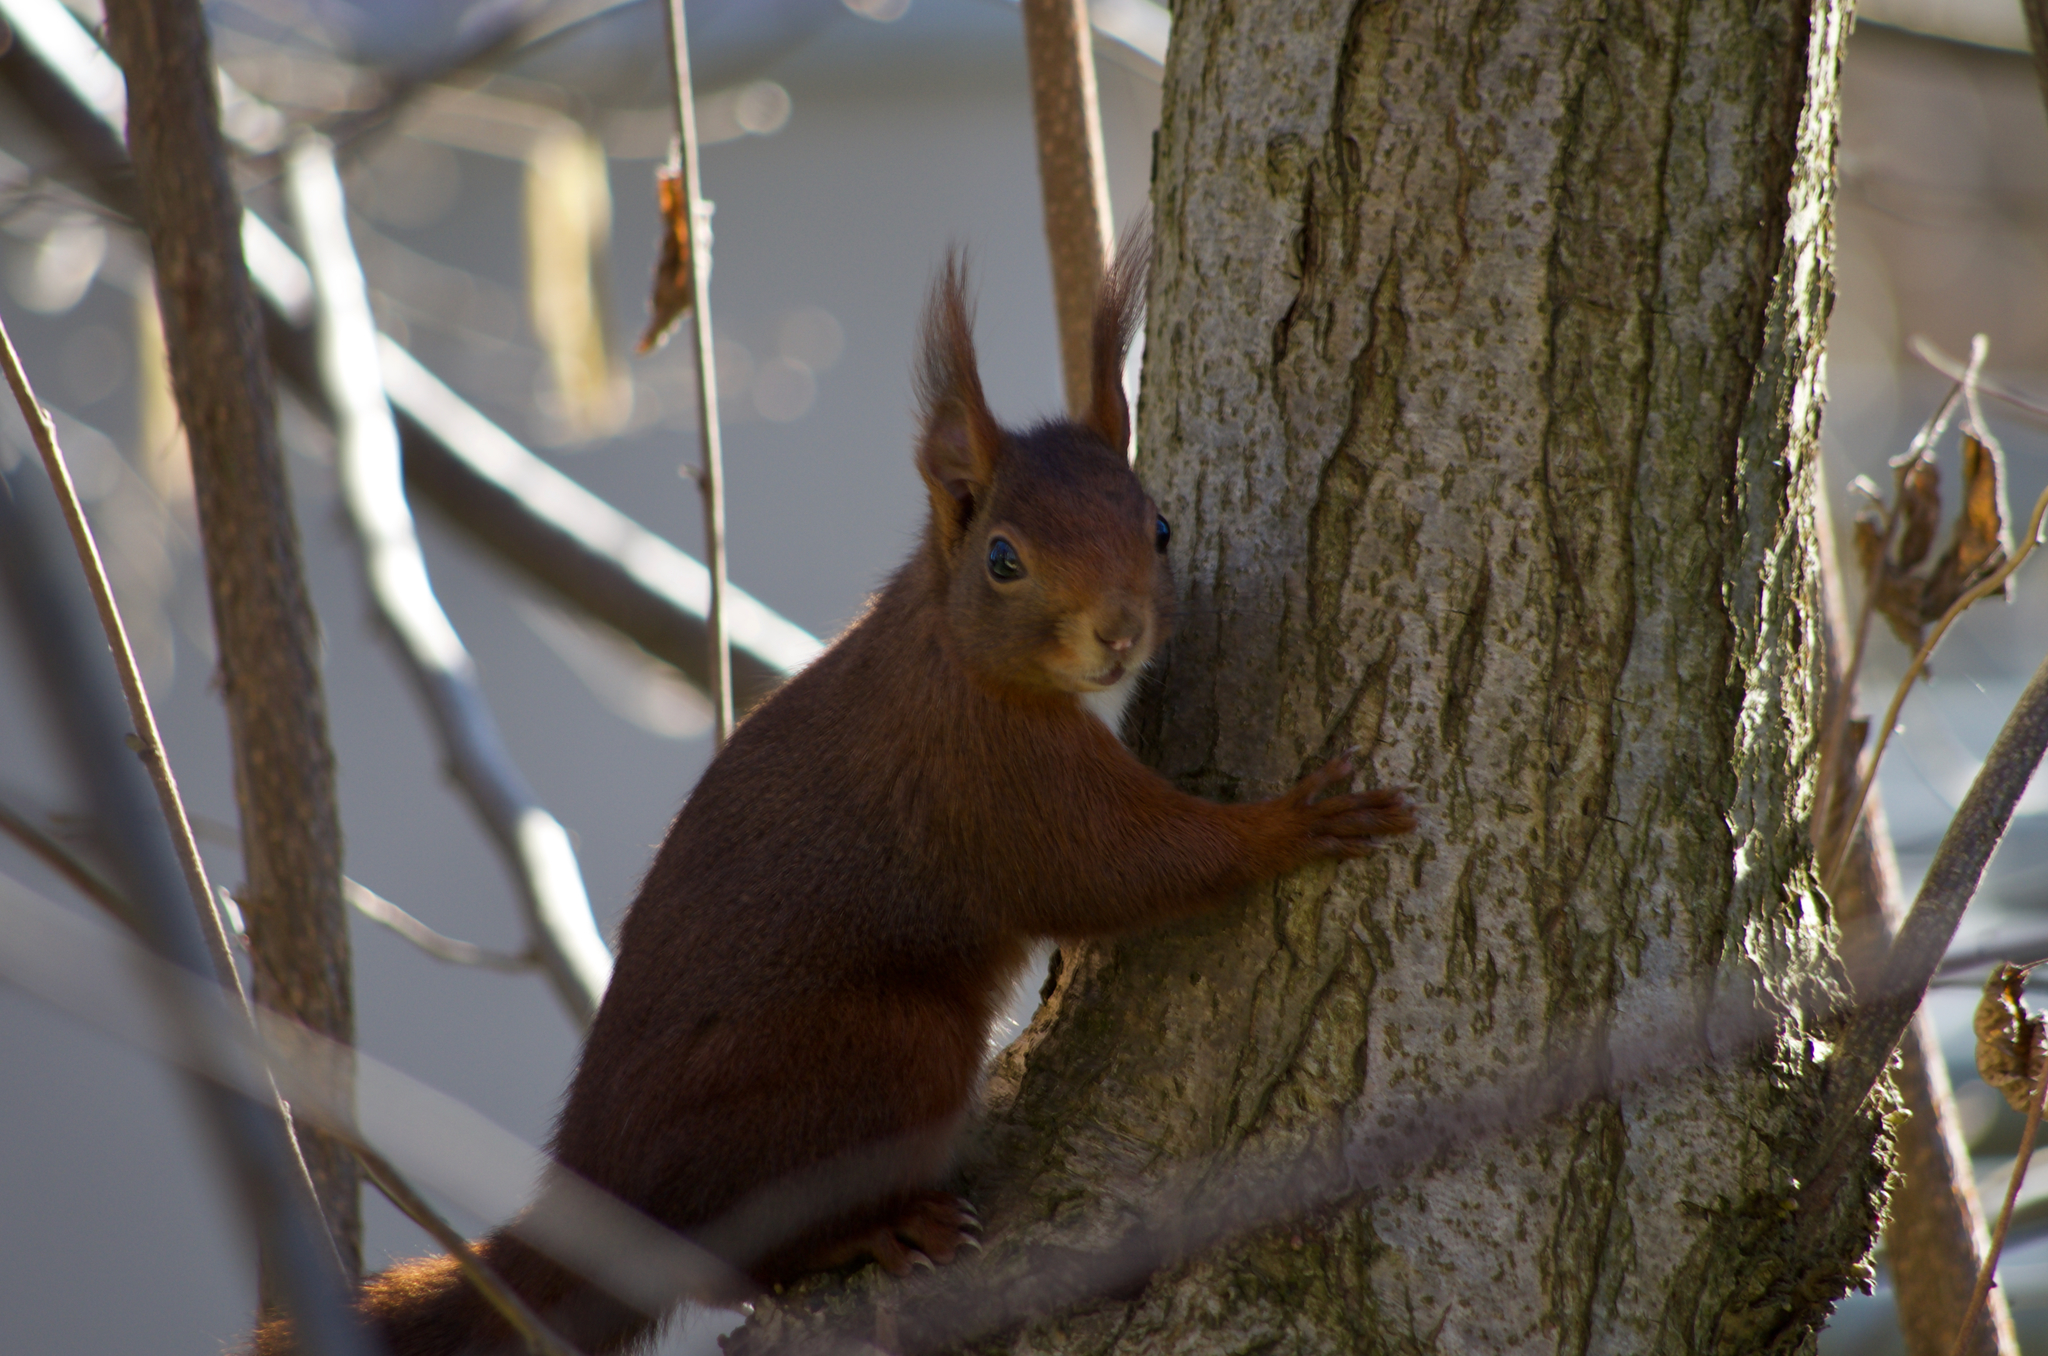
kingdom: Animalia
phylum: Chordata
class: Mammalia
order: Rodentia
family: Sciuridae
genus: Sciurus
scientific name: Sciurus vulgaris
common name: Eurasian red squirrel
